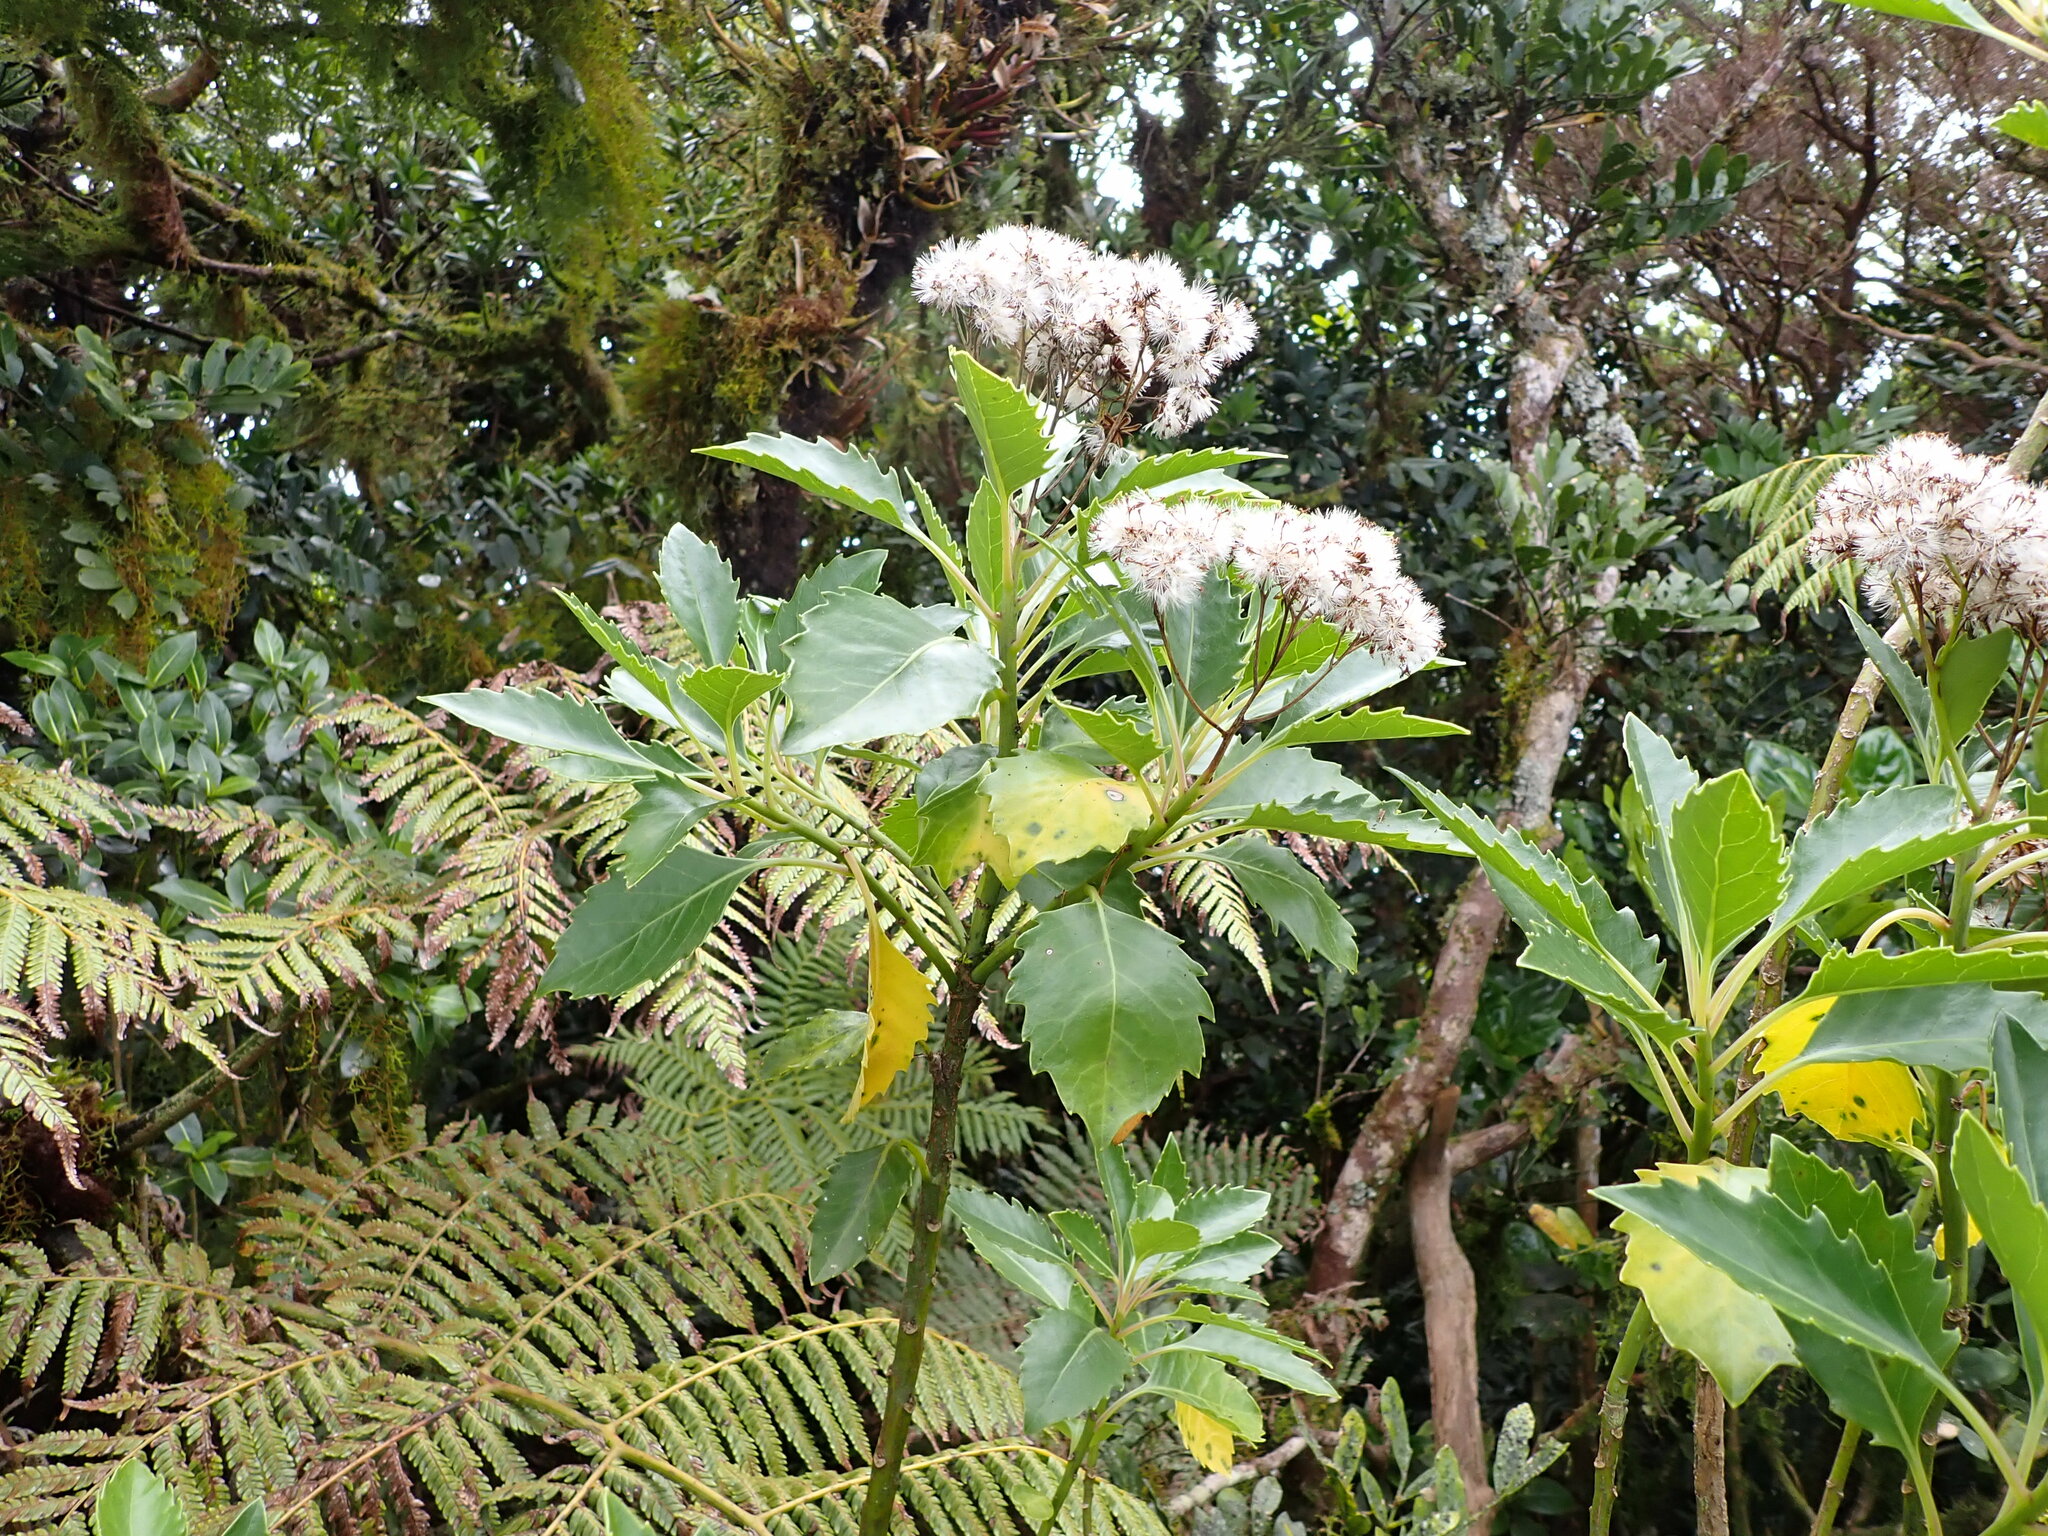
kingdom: Plantae
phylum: Tracheophyta
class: Magnoliopsida
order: Asterales
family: Asteraceae
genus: Lordhowea
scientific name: Lordhowea insularis
